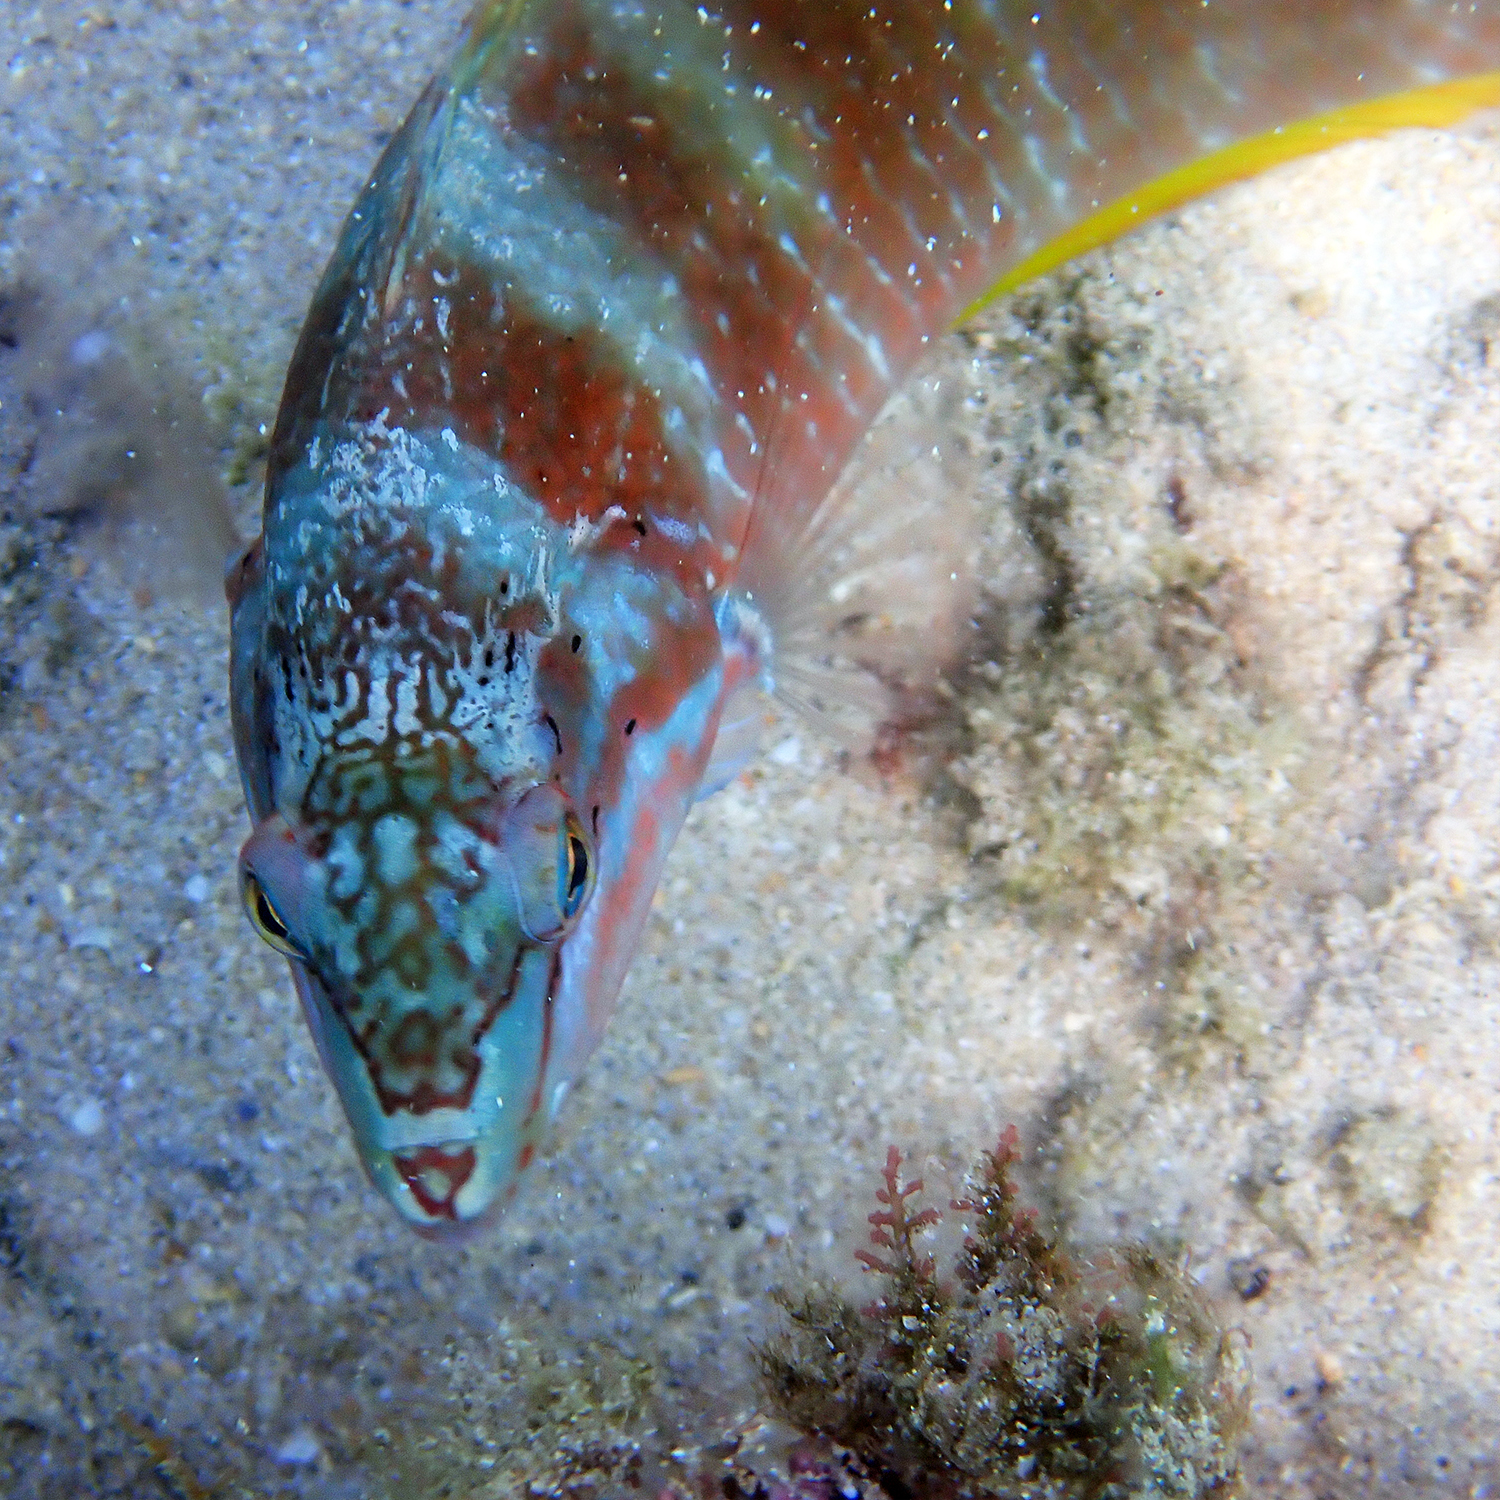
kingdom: Animalia
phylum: Chordata
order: Perciformes
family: Labridae
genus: Pseudolabrus
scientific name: Pseudolabrus luculentus
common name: Luculentus wrasse
